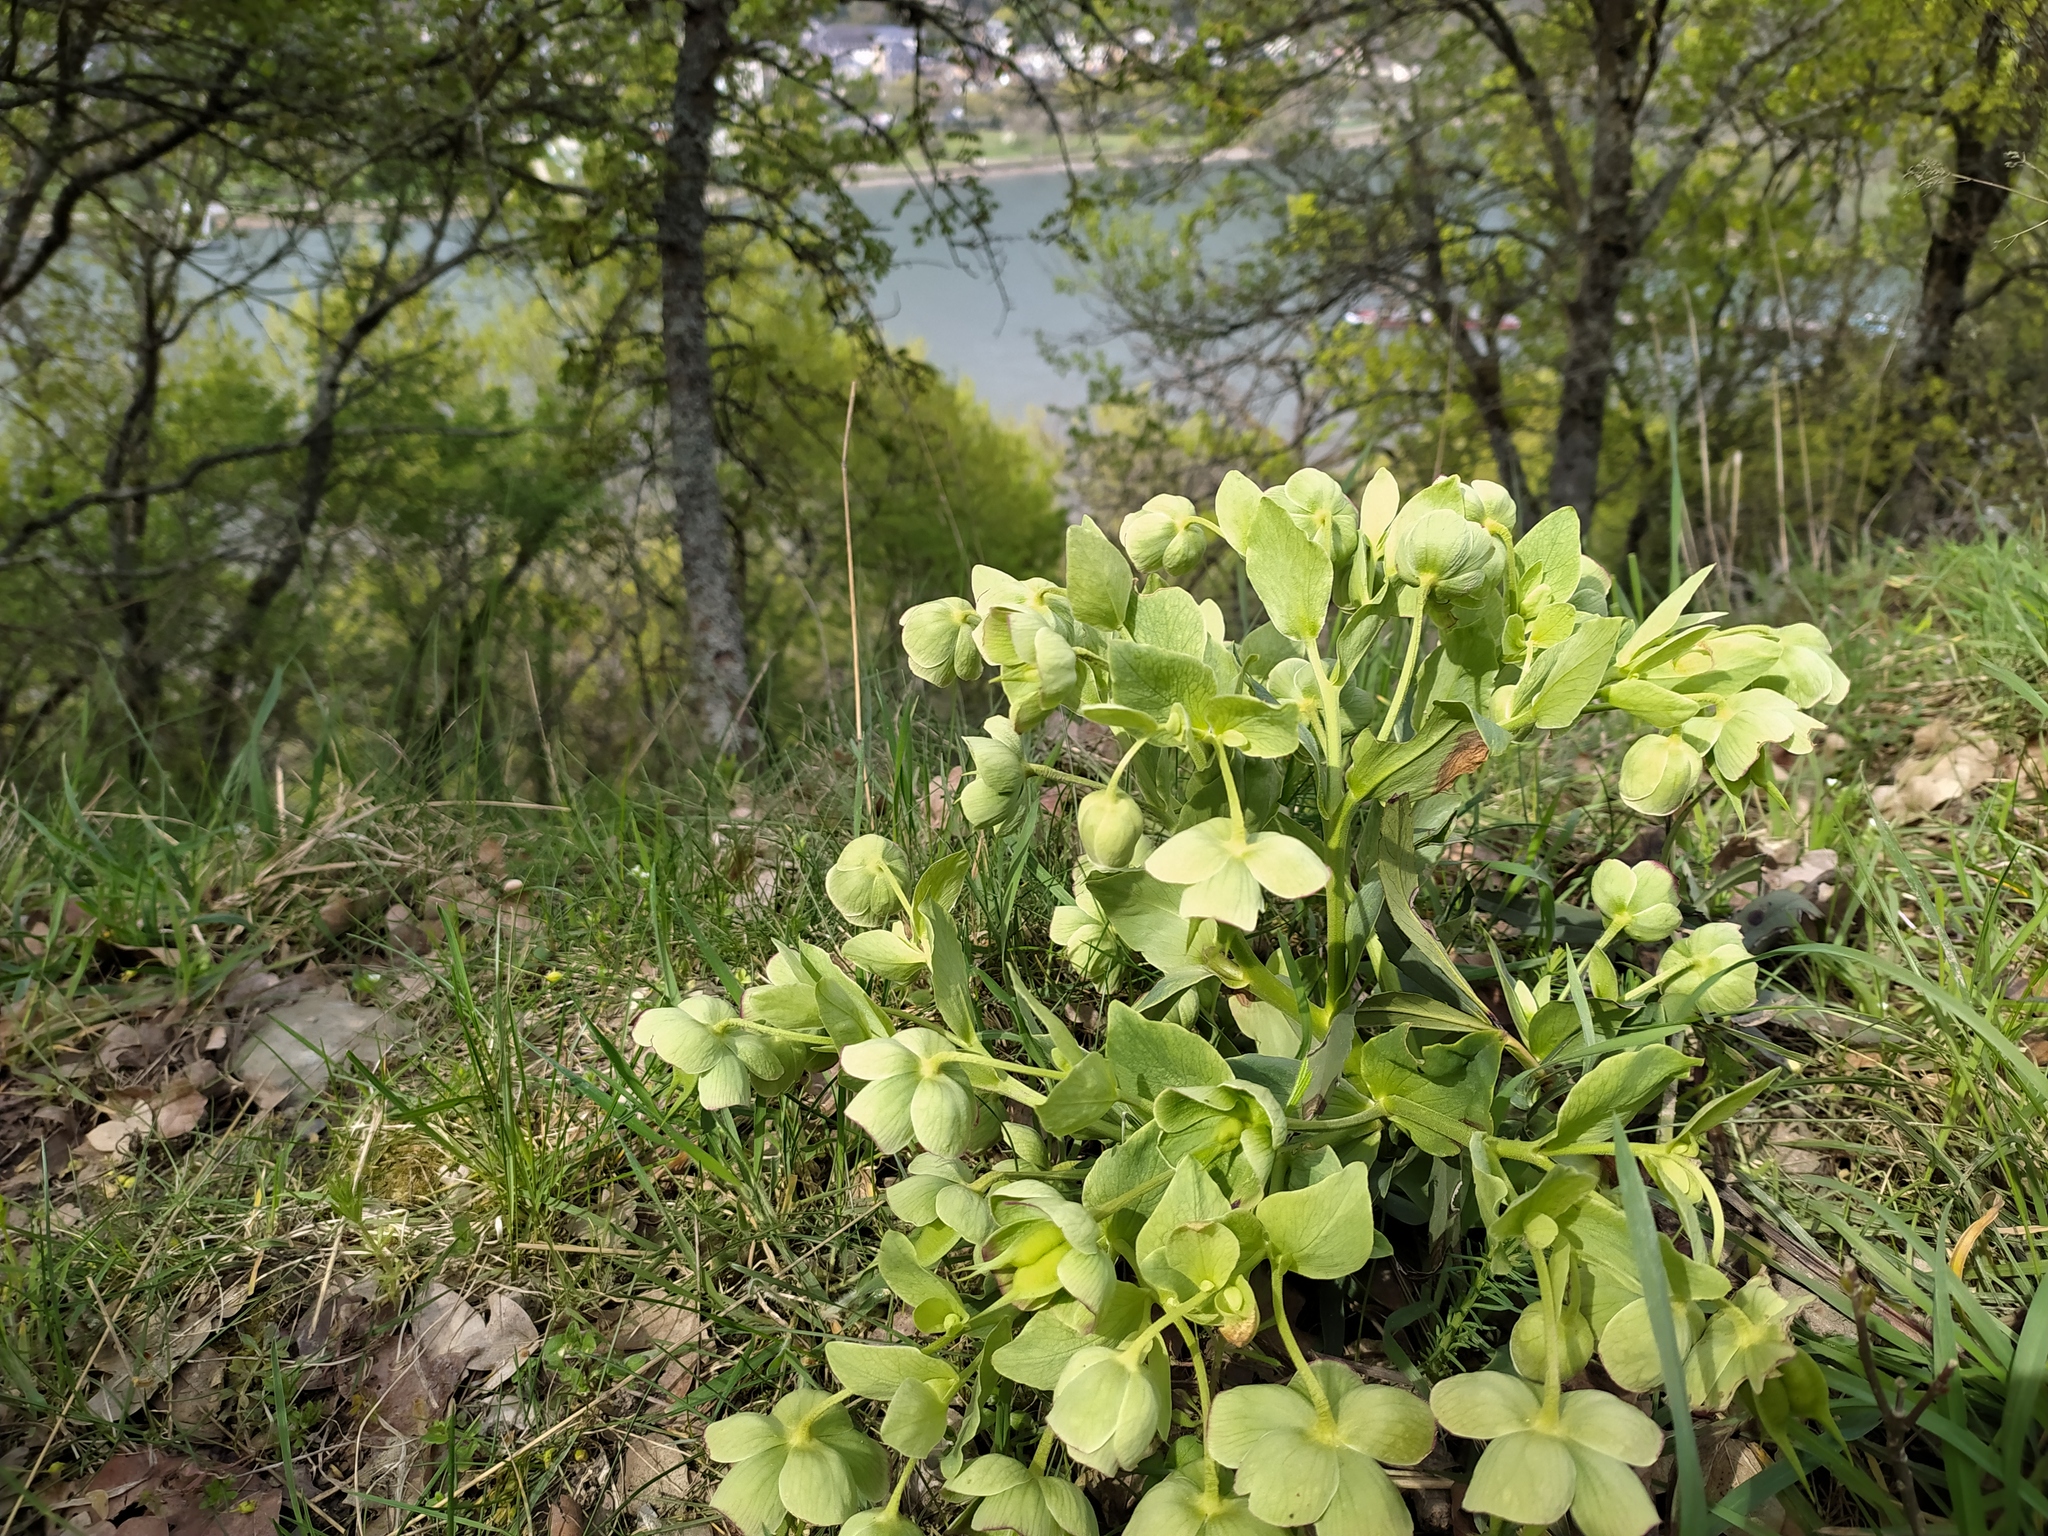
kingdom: Plantae
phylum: Tracheophyta
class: Magnoliopsida
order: Ranunculales
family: Ranunculaceae
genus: Helleborus
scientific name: Helleborus foetidus
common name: Stinking hellebore
